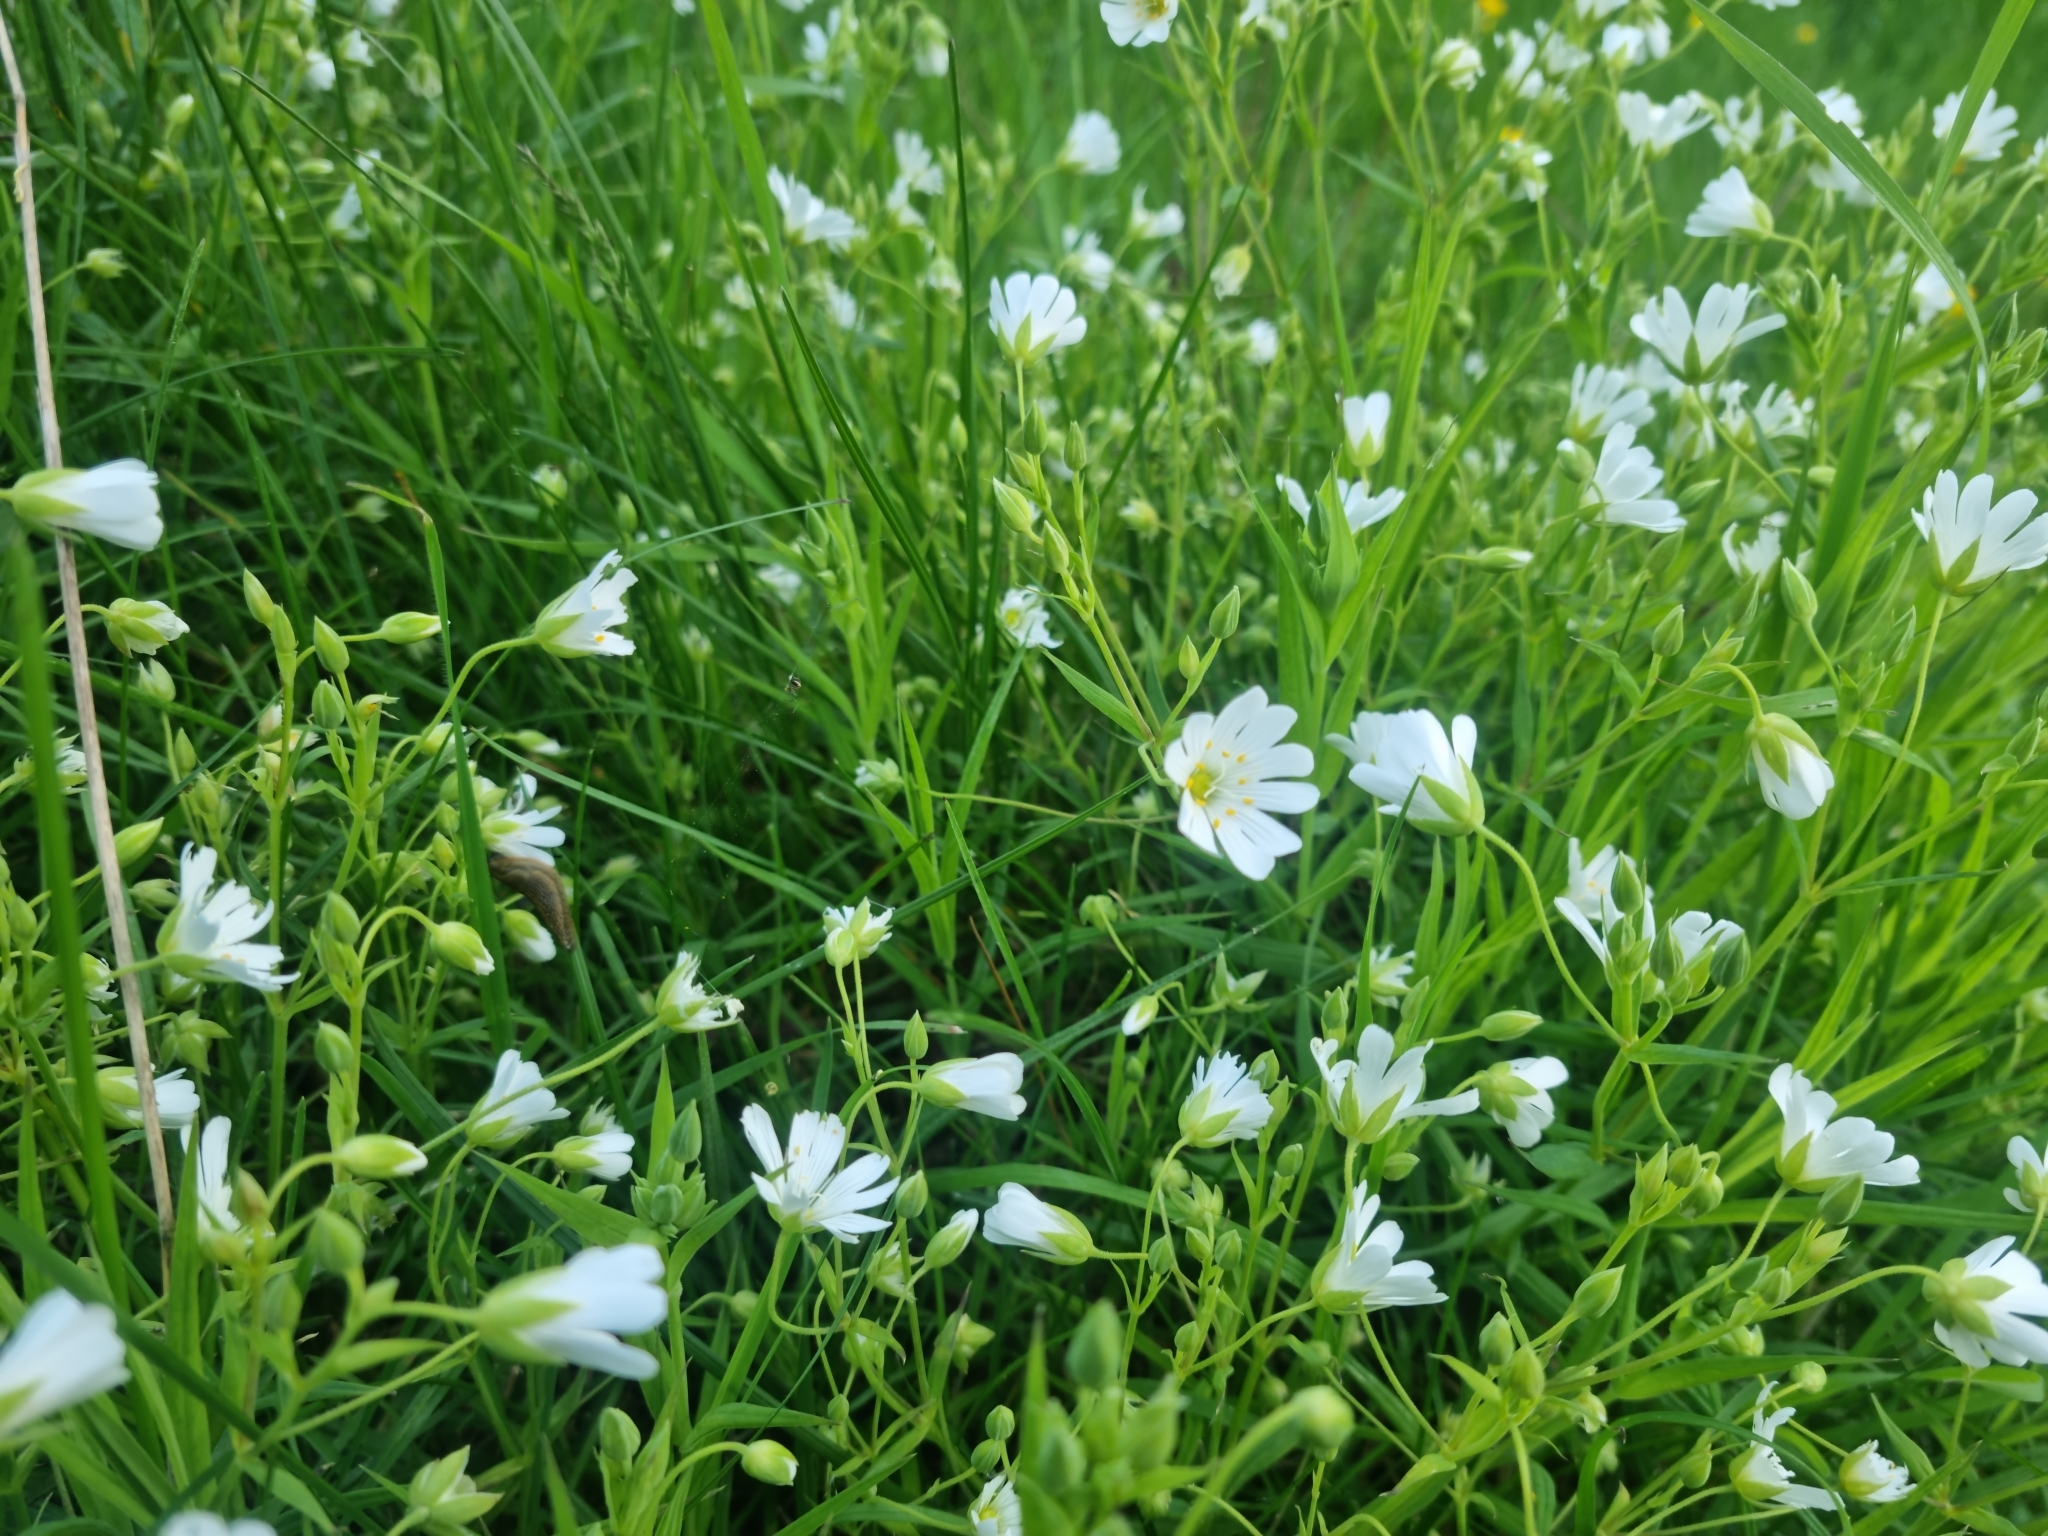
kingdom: Plantae
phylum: Tracheophyta
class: Magnoliopsida
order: Caryophyllales
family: Caryophyllaceae
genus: Rabelera
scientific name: Rabelera holostea
